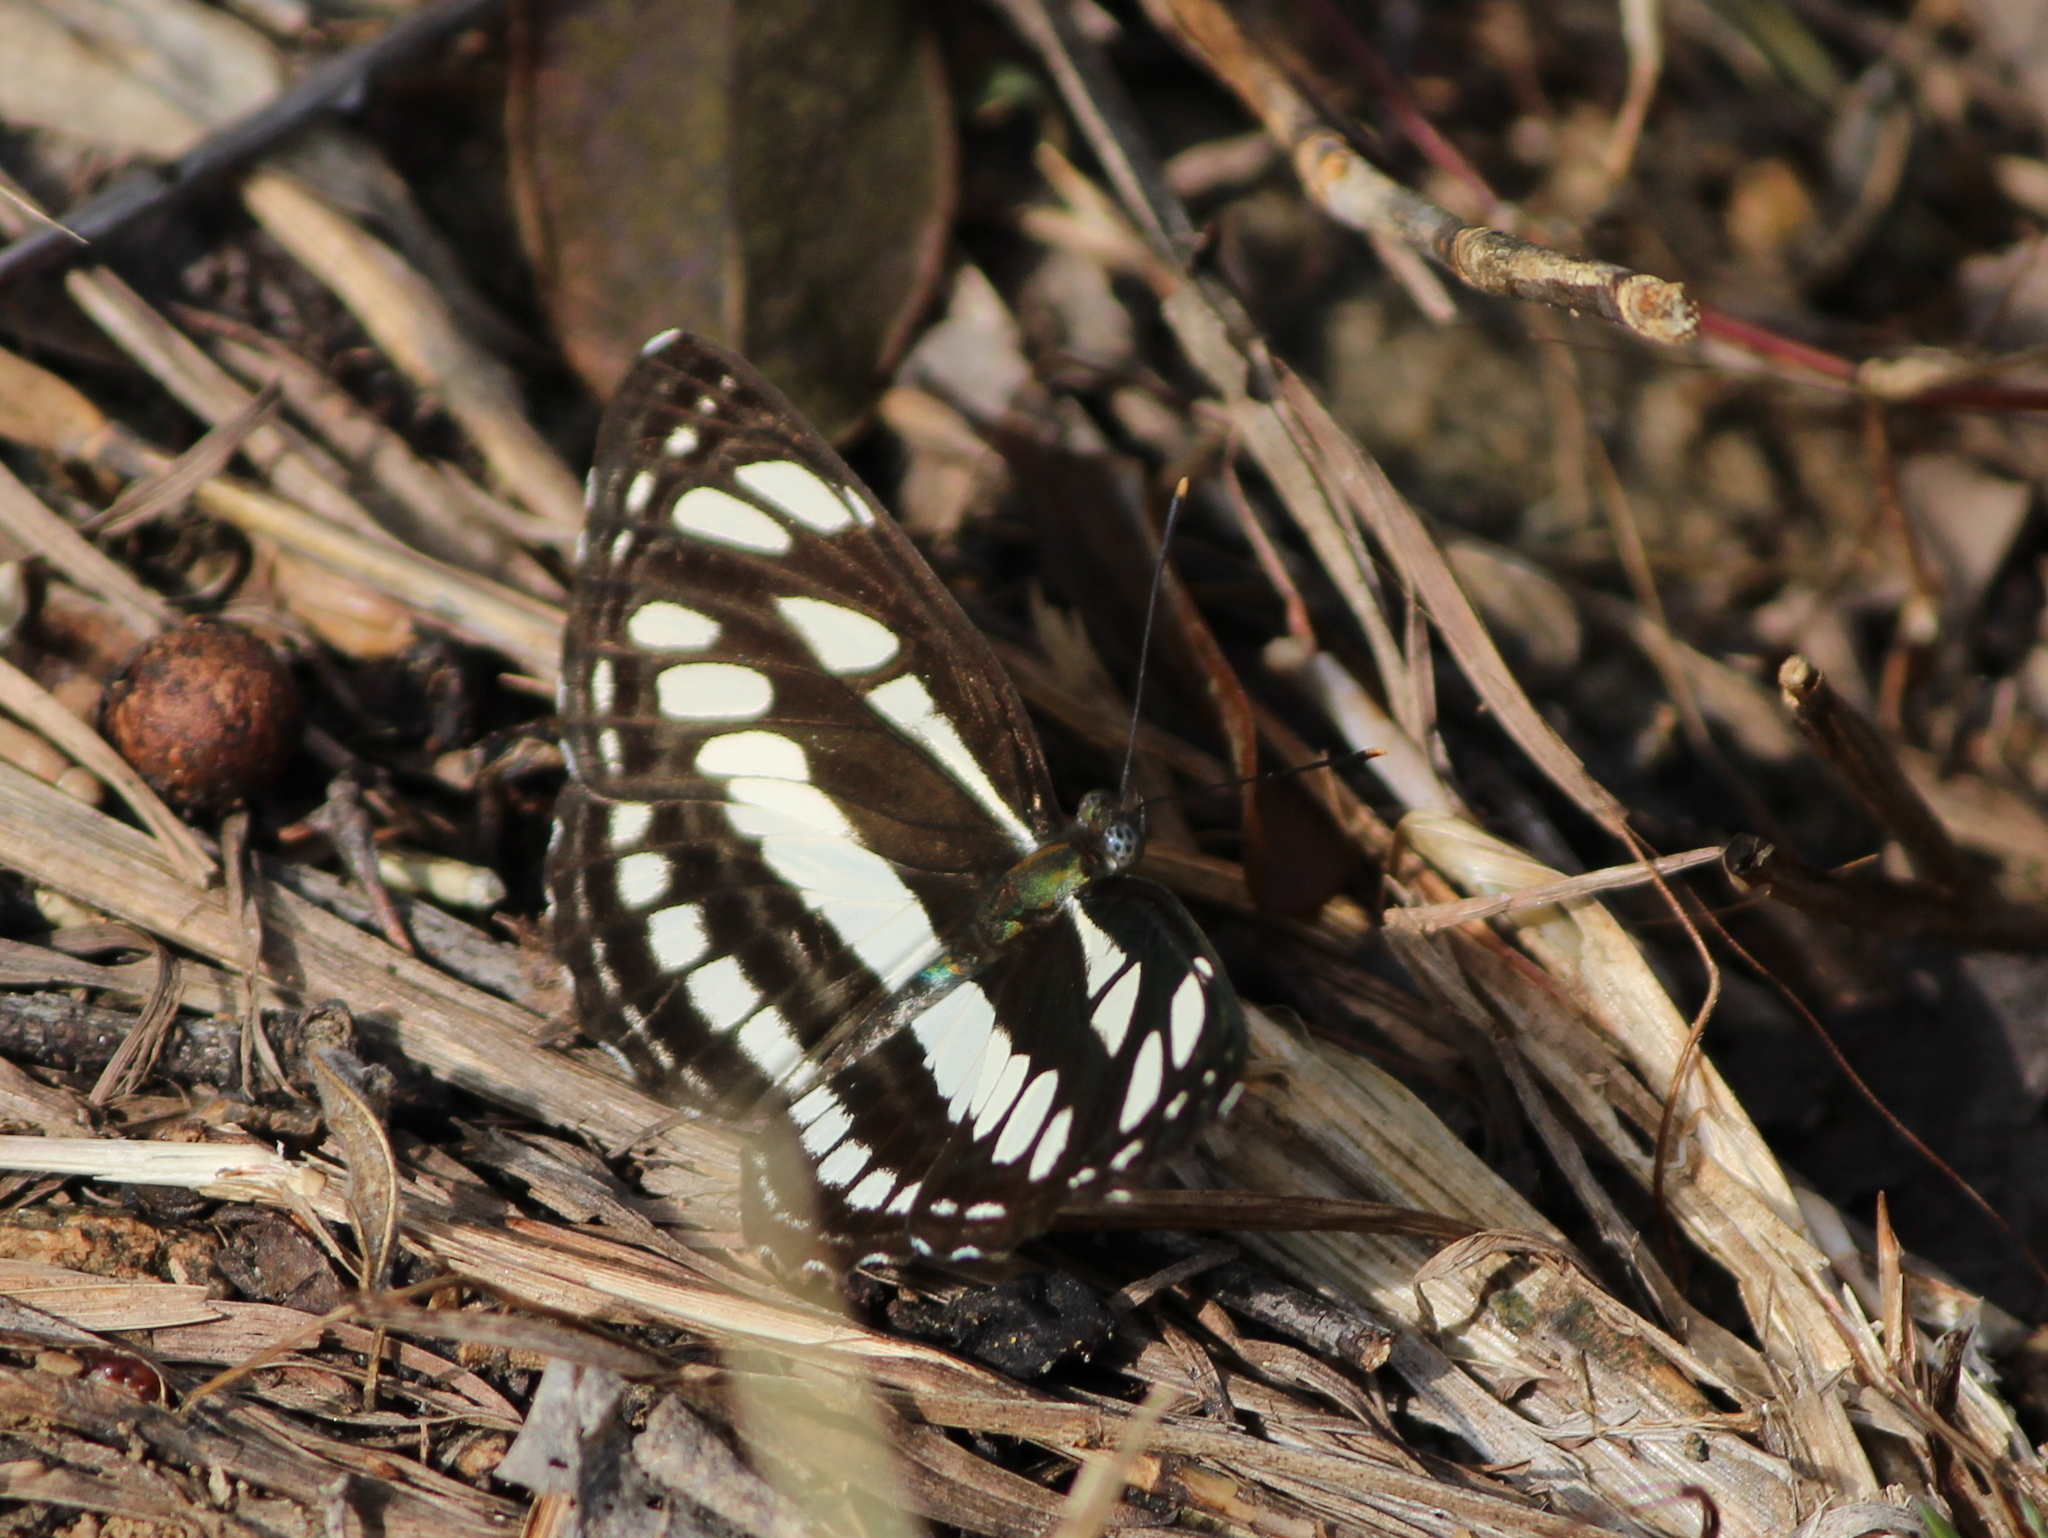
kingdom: Animalia
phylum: Arthropoda
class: Insecta
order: Lepidoptera
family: Nymphalidae
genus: Neptis
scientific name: Neptis hylas
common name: Common sailer
